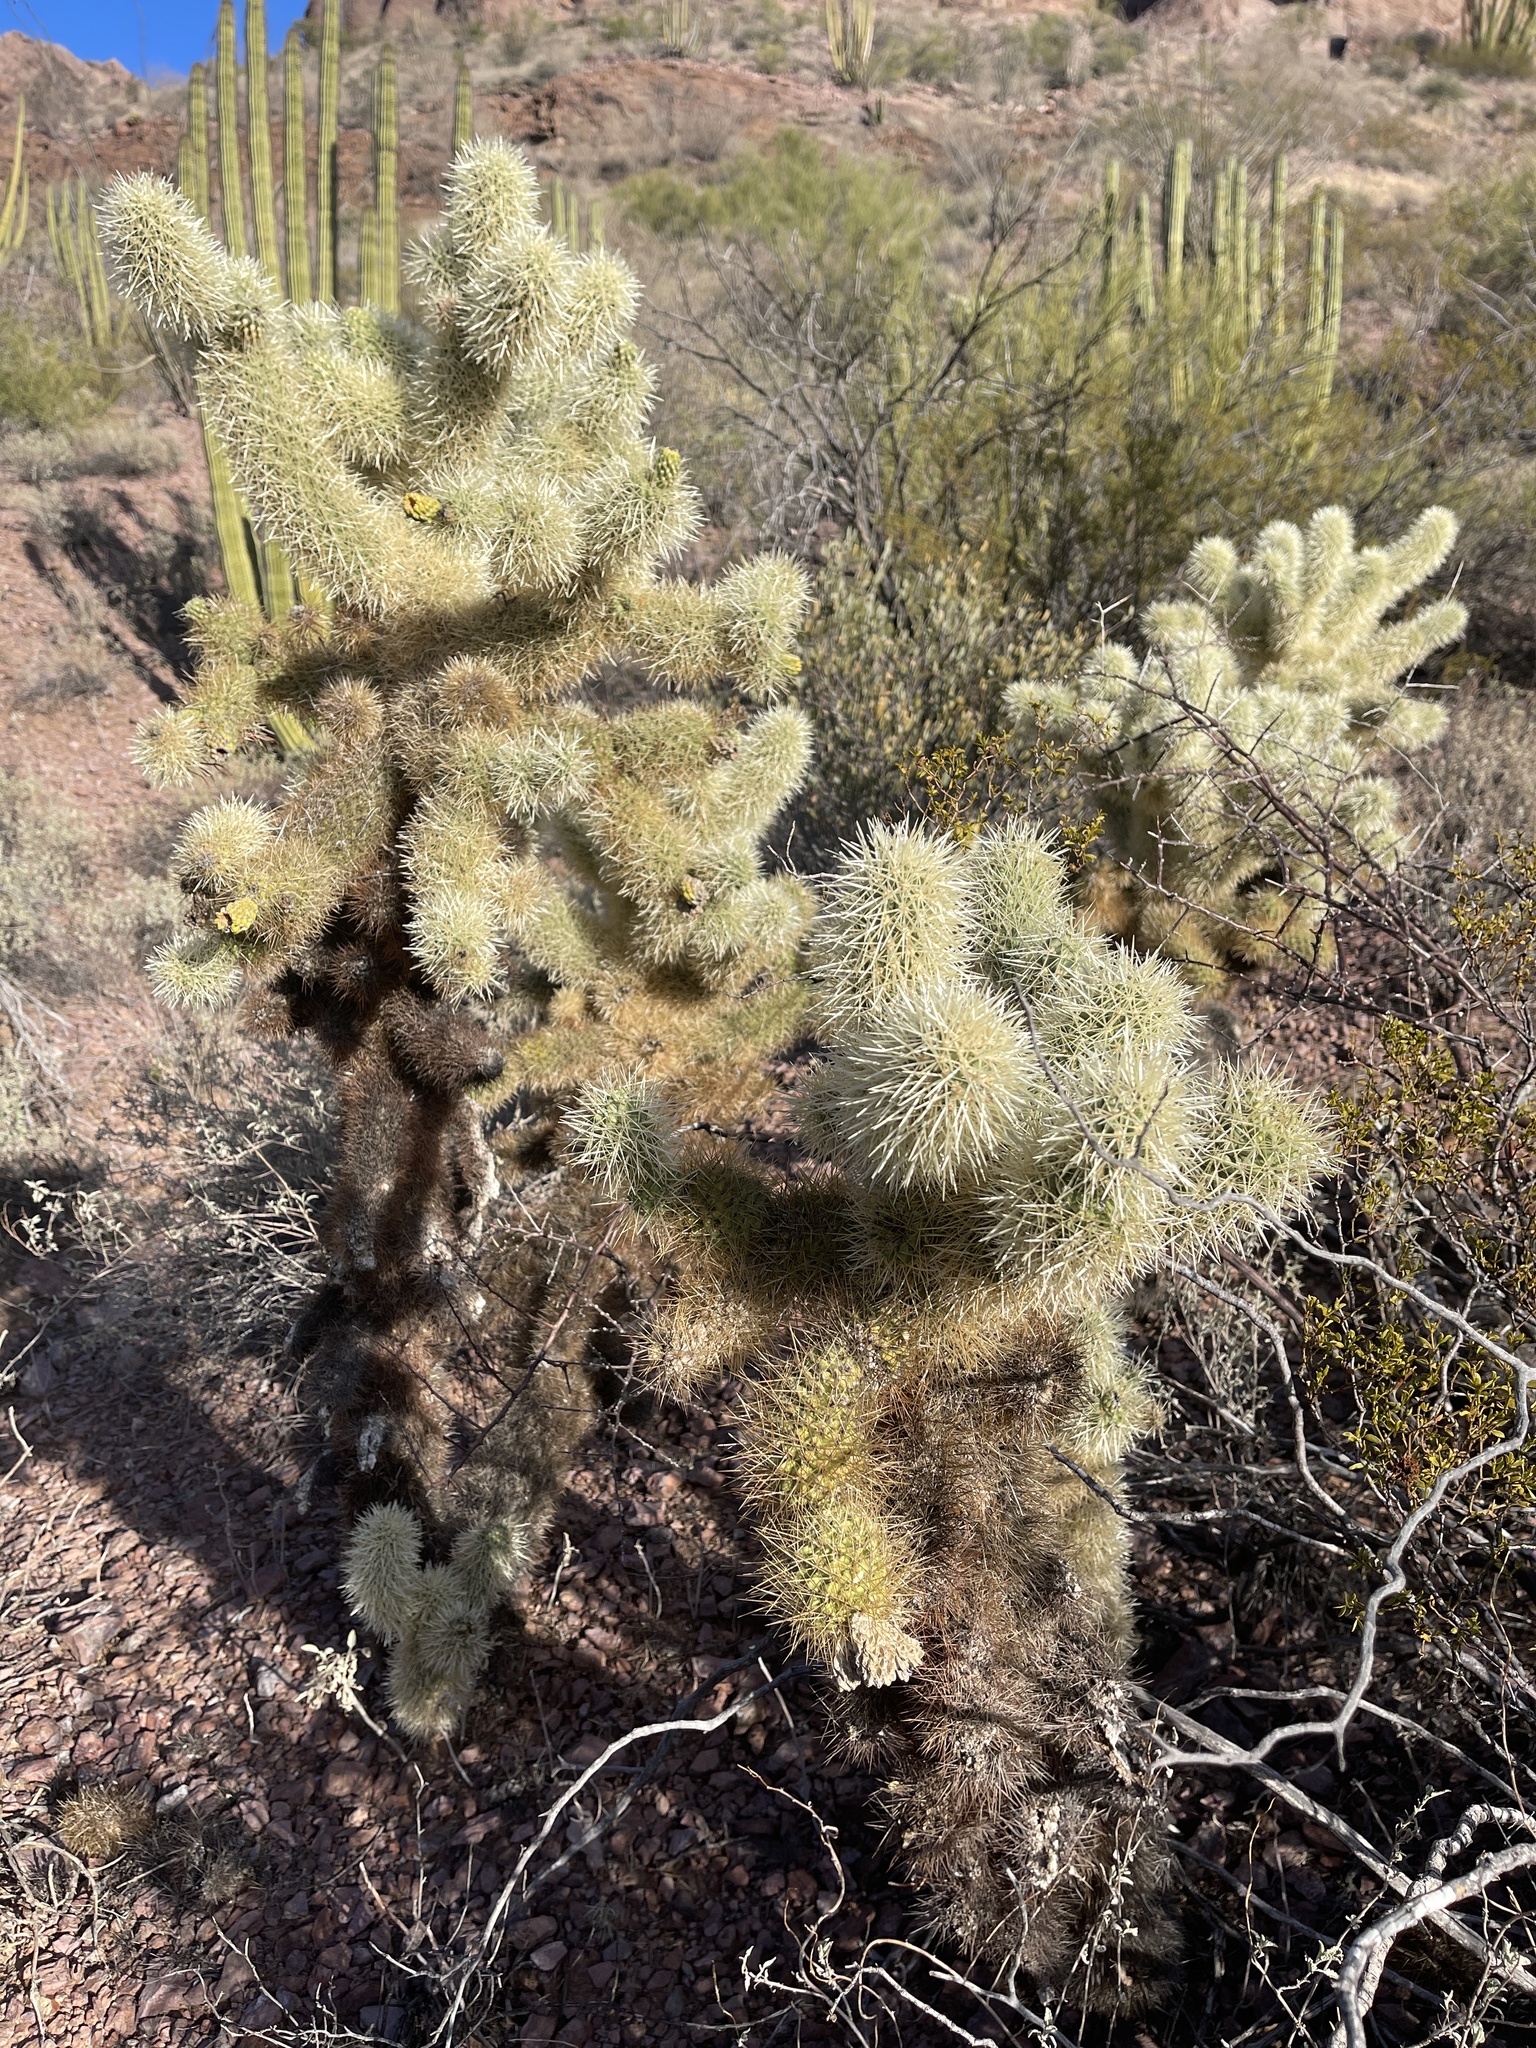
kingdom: Plantae
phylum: Tracheophyta
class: Magnoliopsida
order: Caryophyllales
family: Cactaceae
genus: Cylindropuntia
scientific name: Cylindropuntia fosbergii
